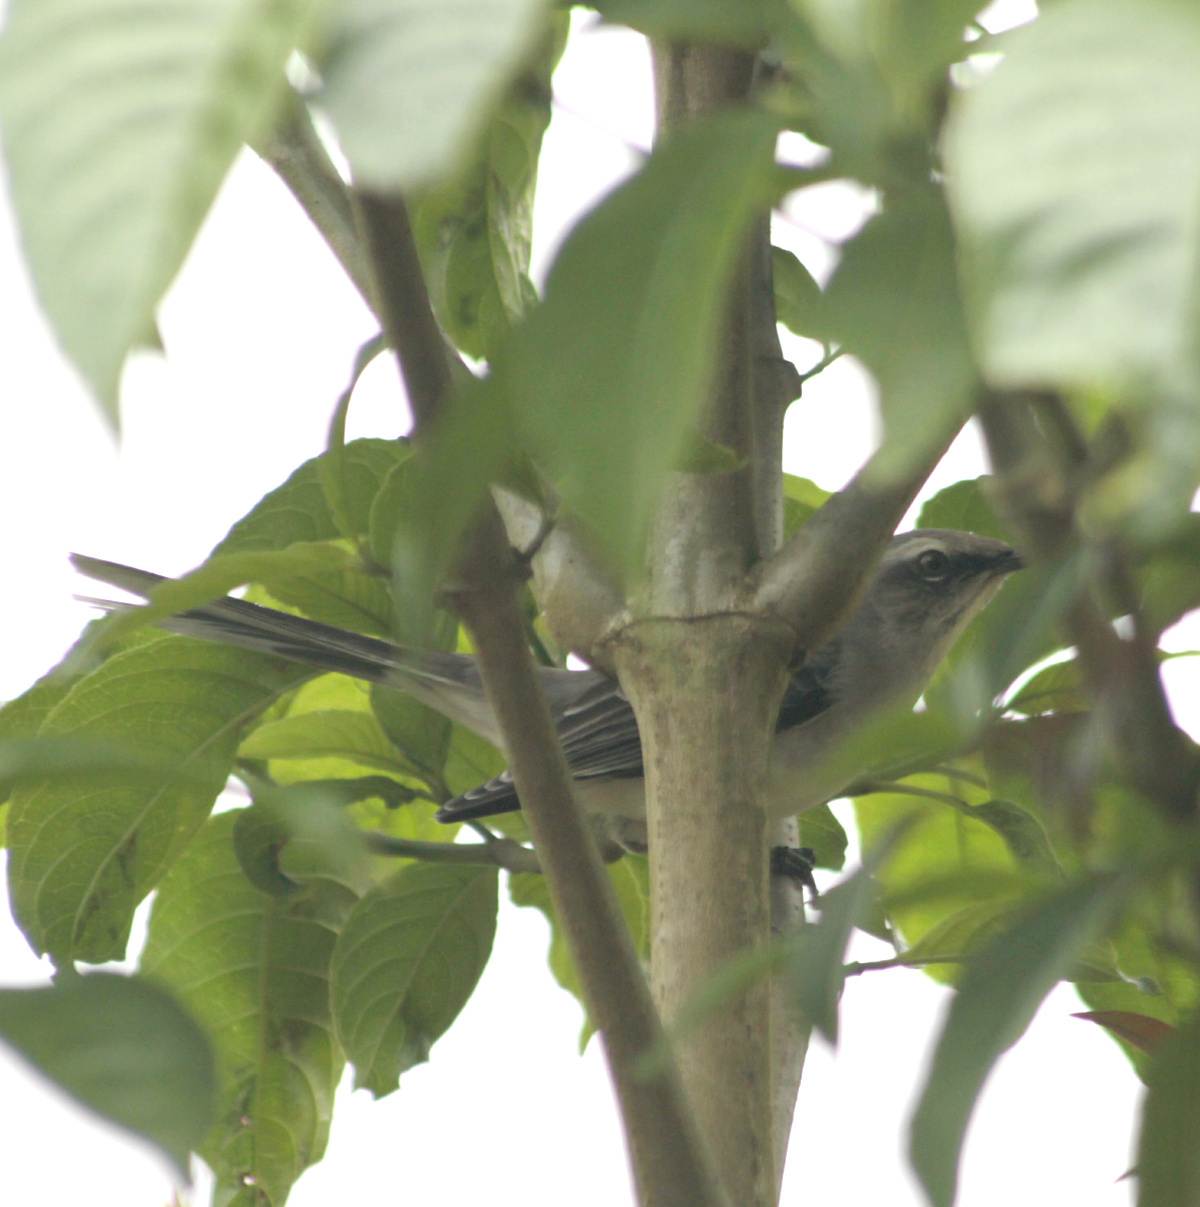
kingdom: Animalia
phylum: Chordata
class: Aves
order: Passeriformes
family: Mimidae
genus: Mimus
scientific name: Mimus gilvus
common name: Tropical mockingbird
